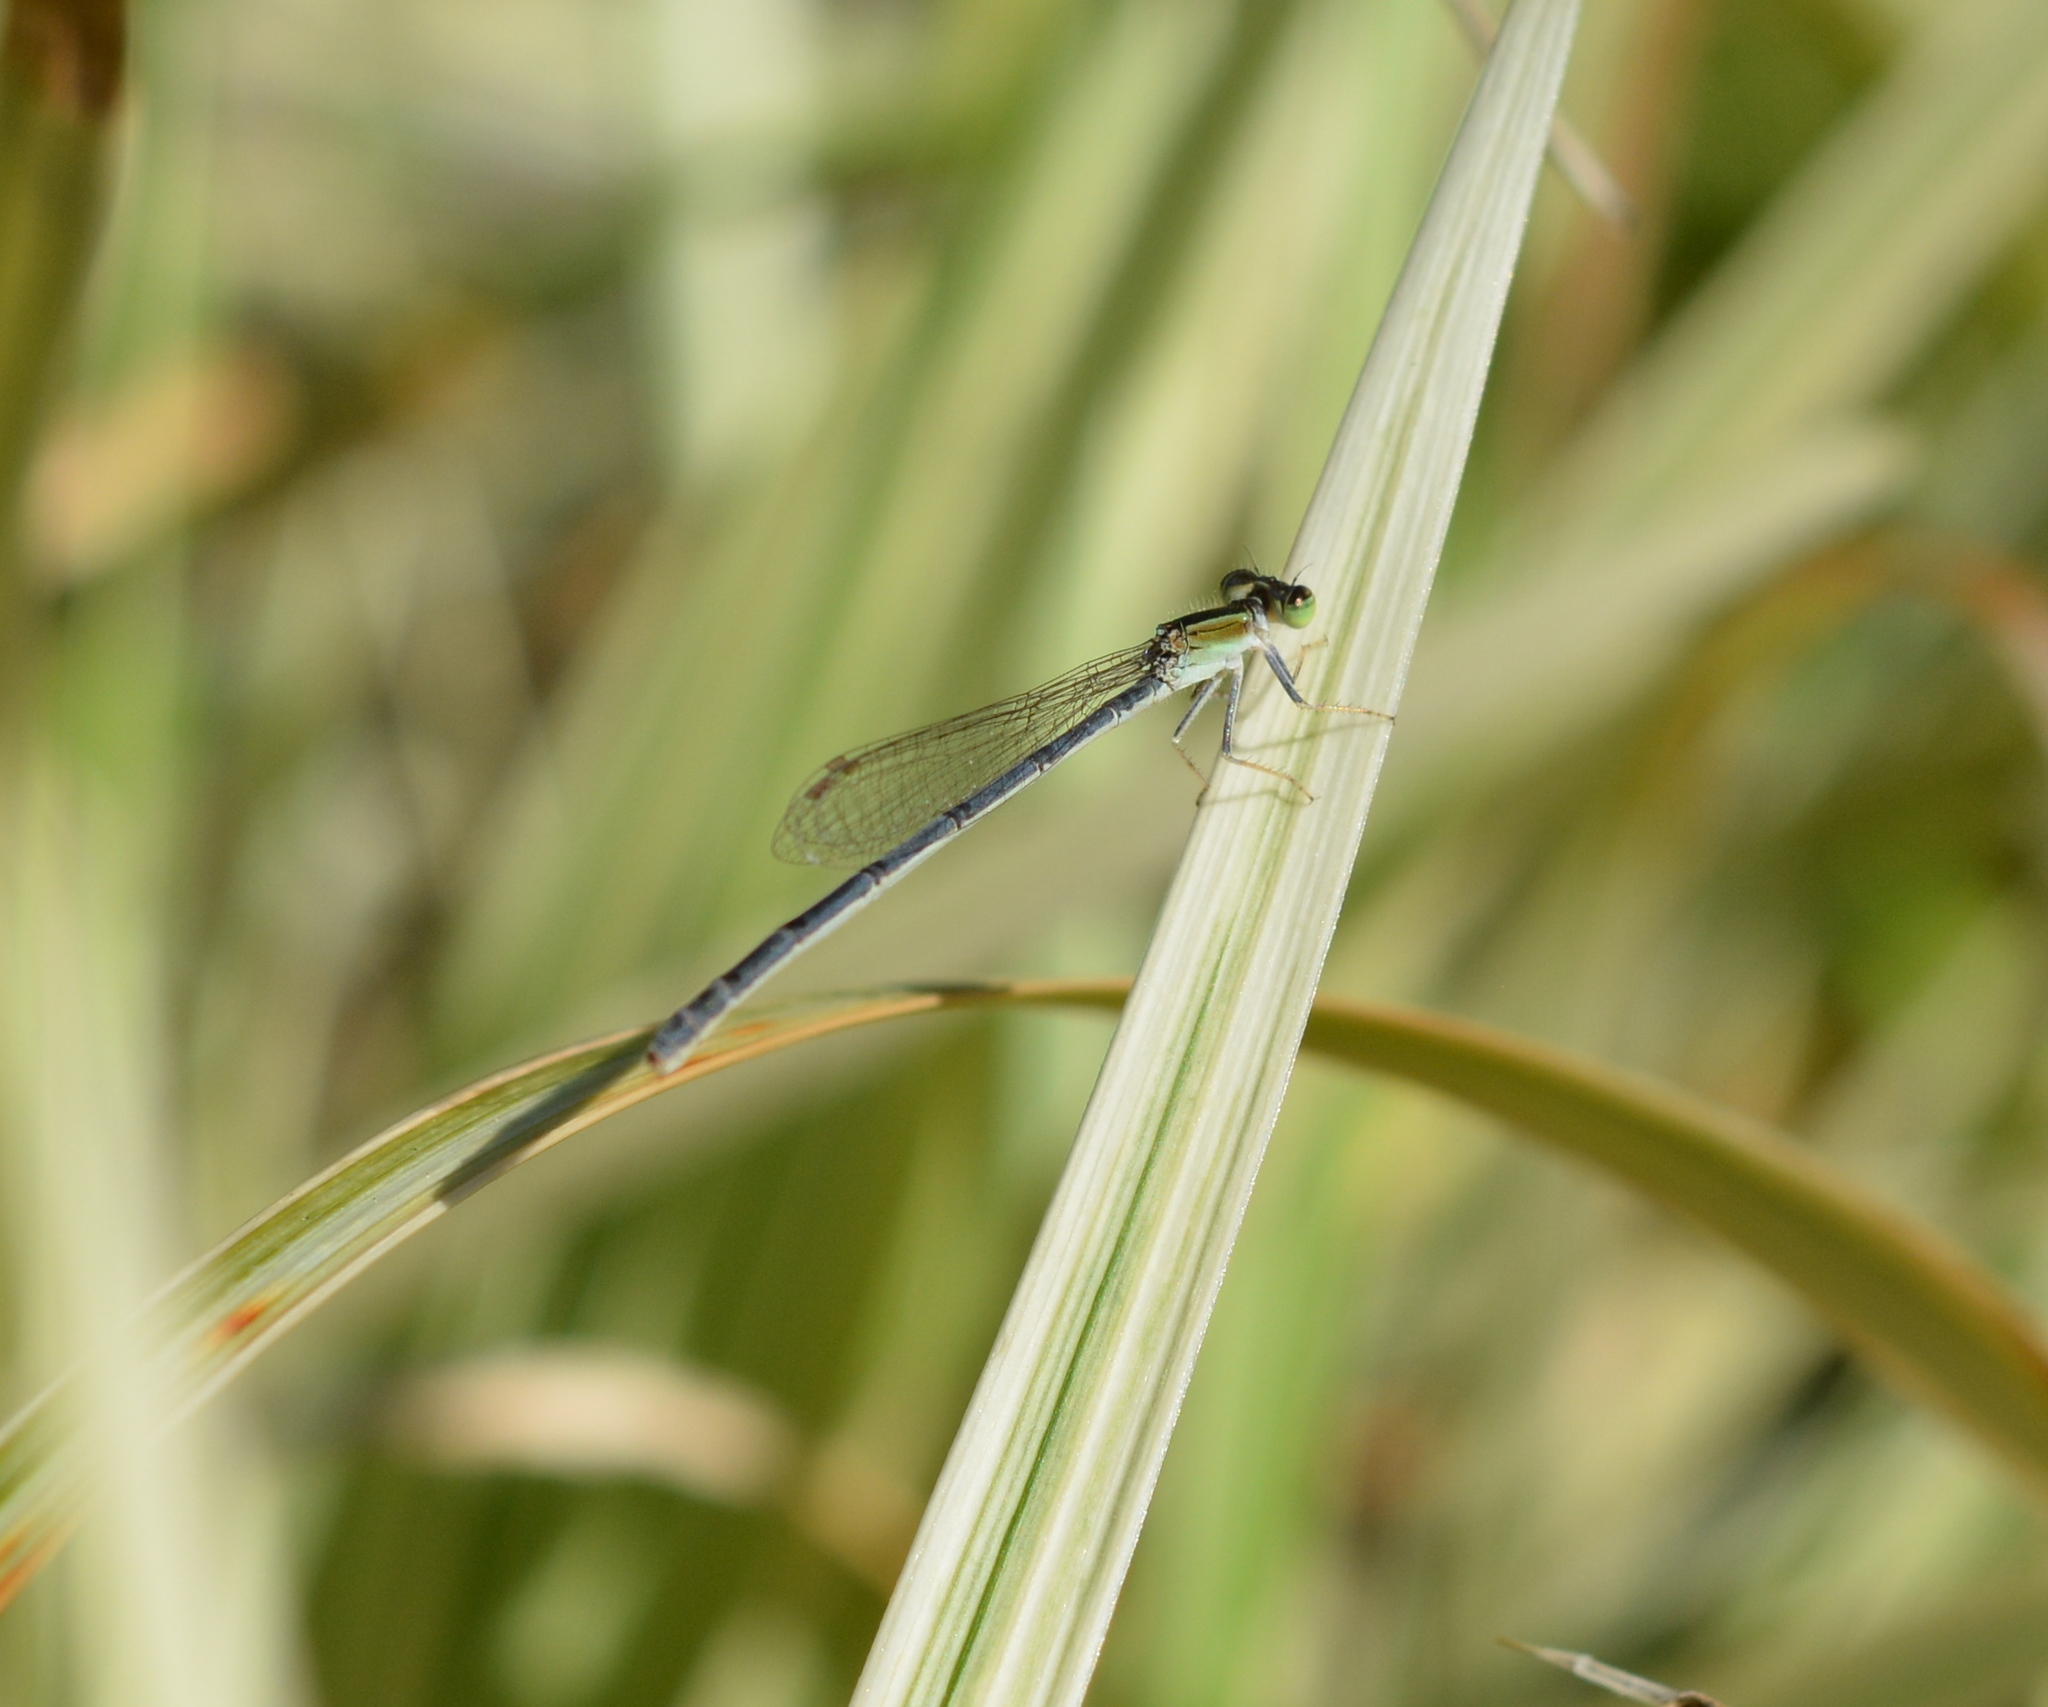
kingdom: Animalia
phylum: Arthropoda
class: Insecta
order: Odonata
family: Coenagrionidae
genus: Ischnura
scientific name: Ischnura hastata
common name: Citrine forktail
